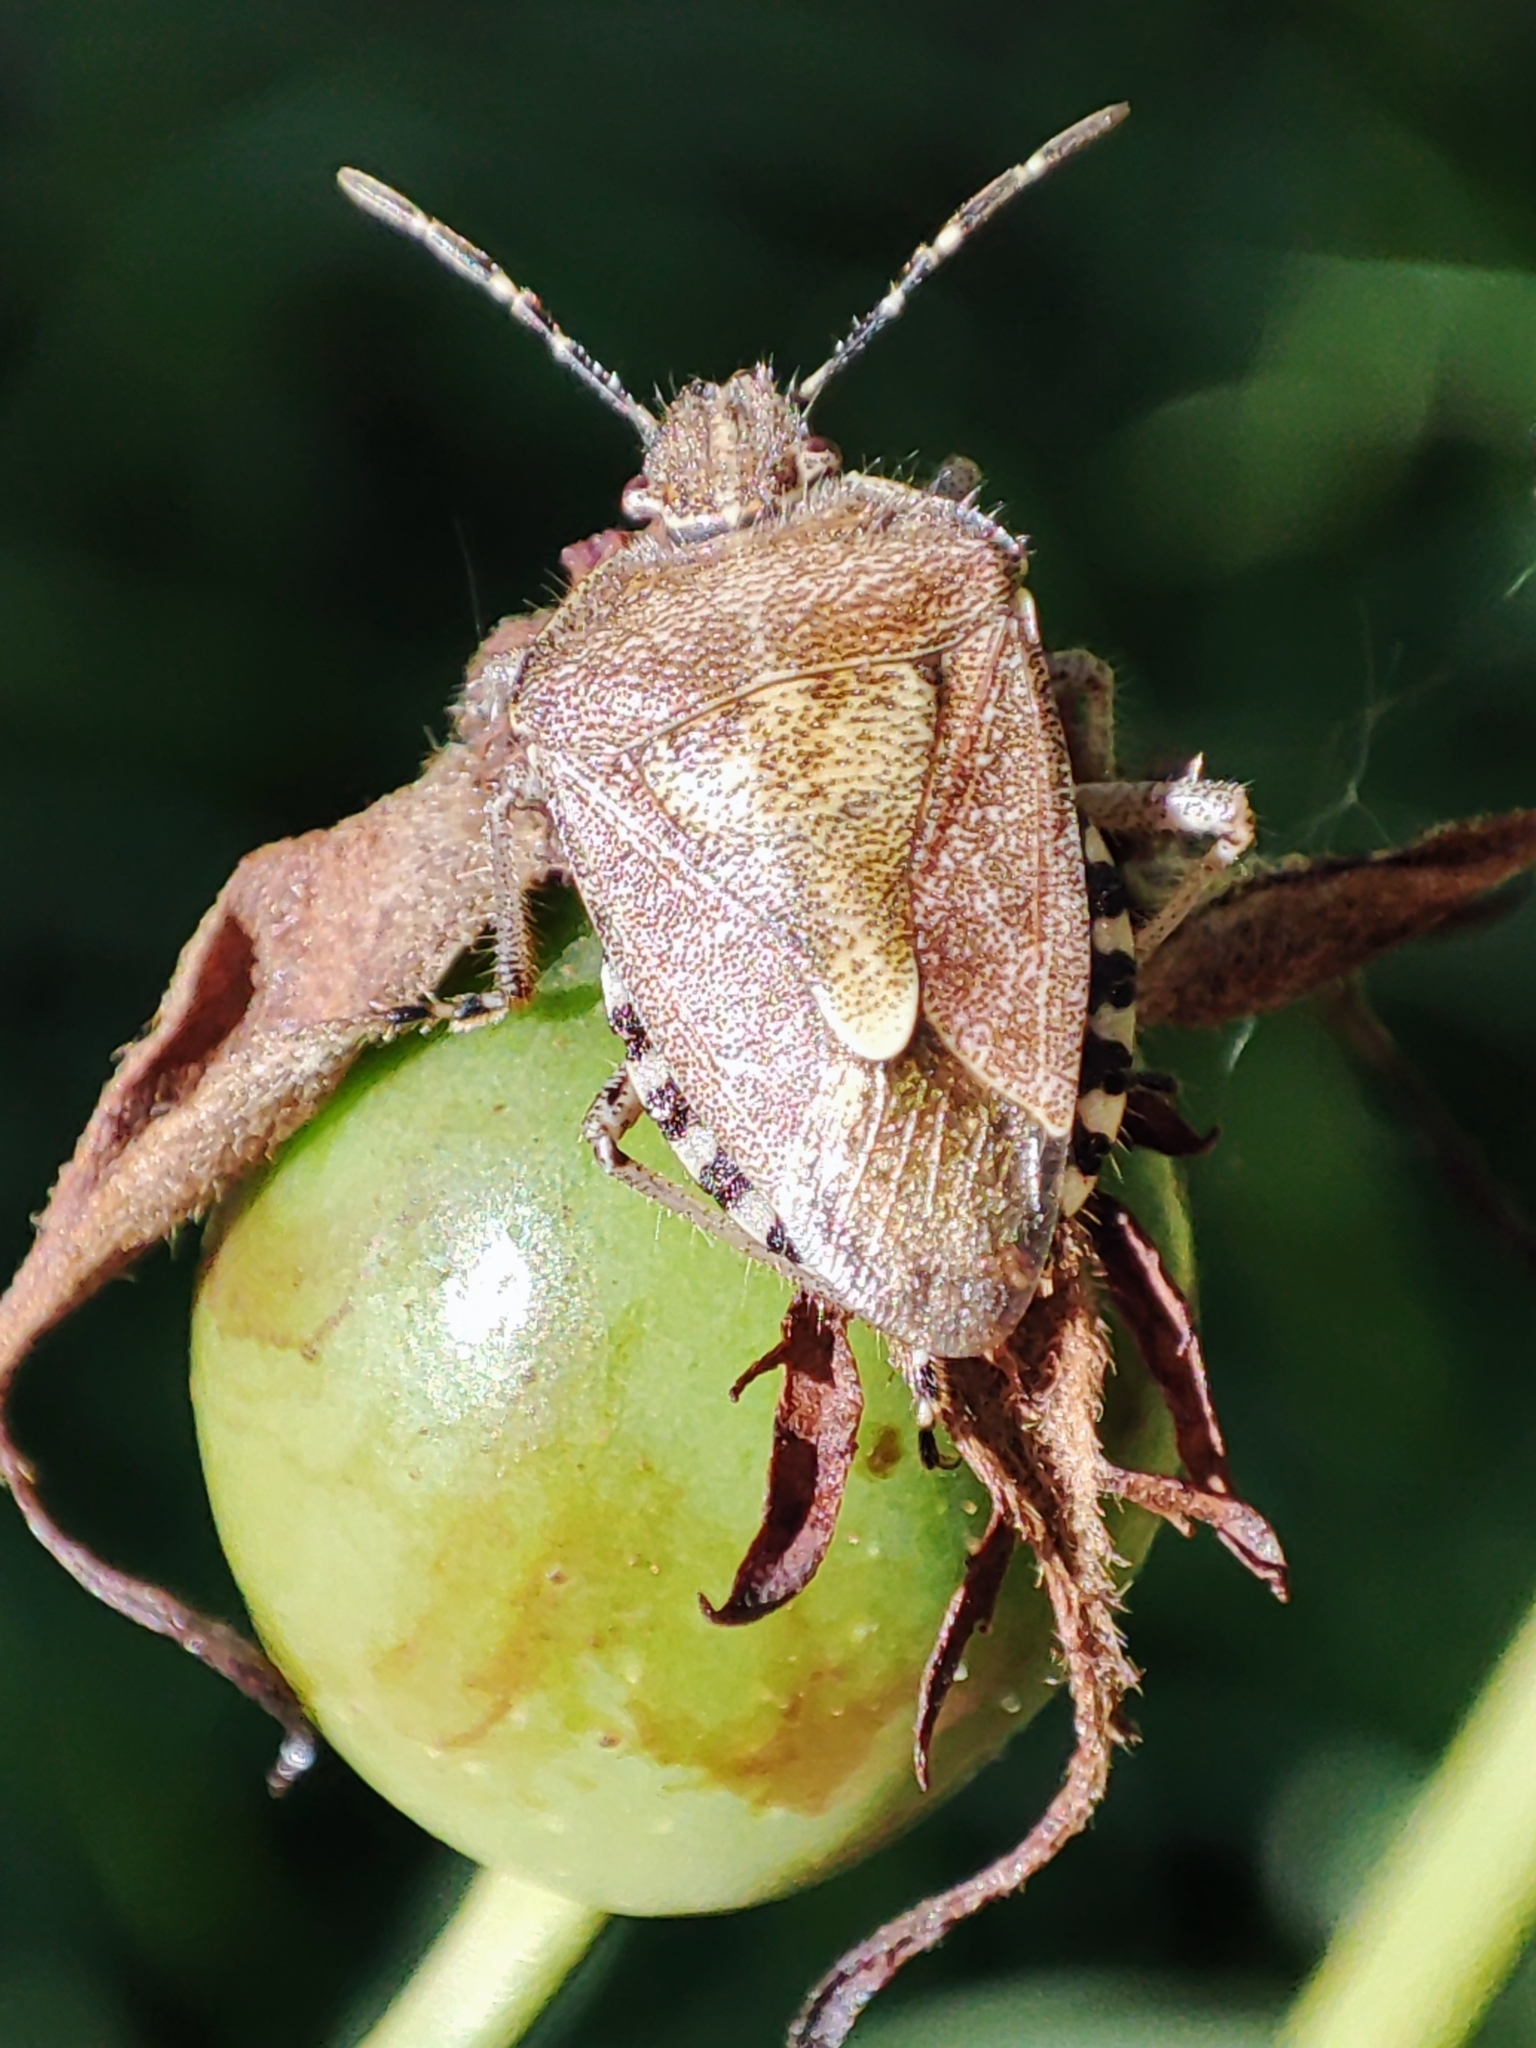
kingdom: Animalia
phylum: Arthropoda
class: Insecta
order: Hemiptera
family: Pentatomidae
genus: Dolycoris
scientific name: Dolycoris baccarum
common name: Sloe bug
